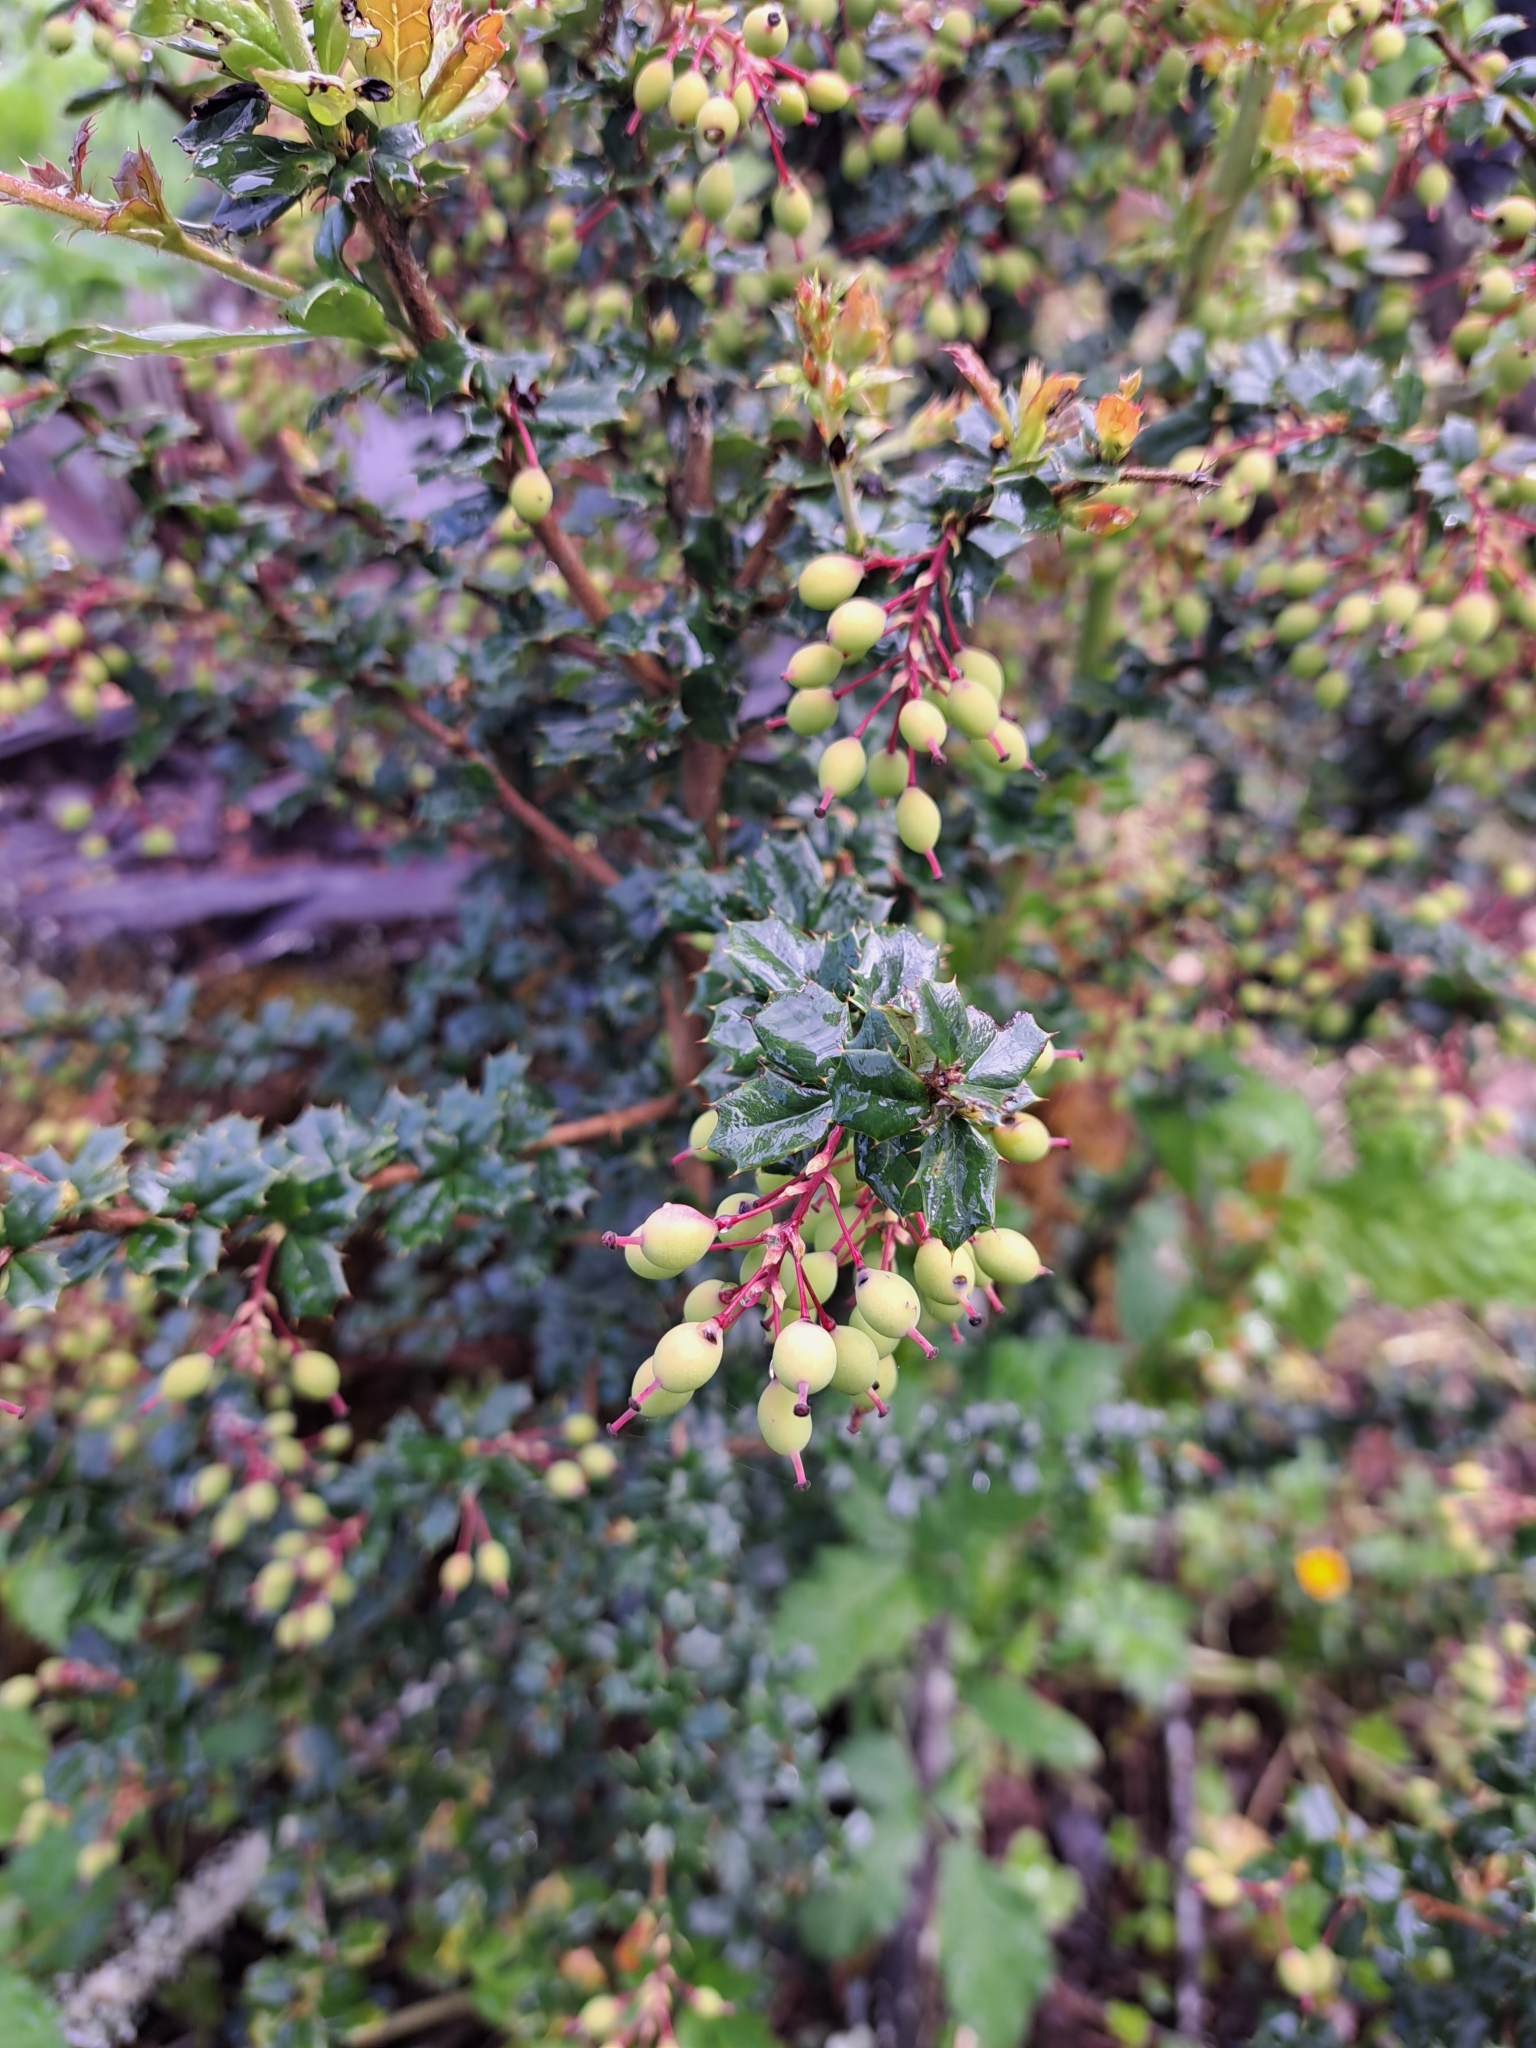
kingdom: Plantae
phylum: Tracheophyta
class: Magnoliopsida
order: Ranunculales
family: Berberidaceae
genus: Berberis
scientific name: Berberis darwinii
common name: Darwin's barberry
